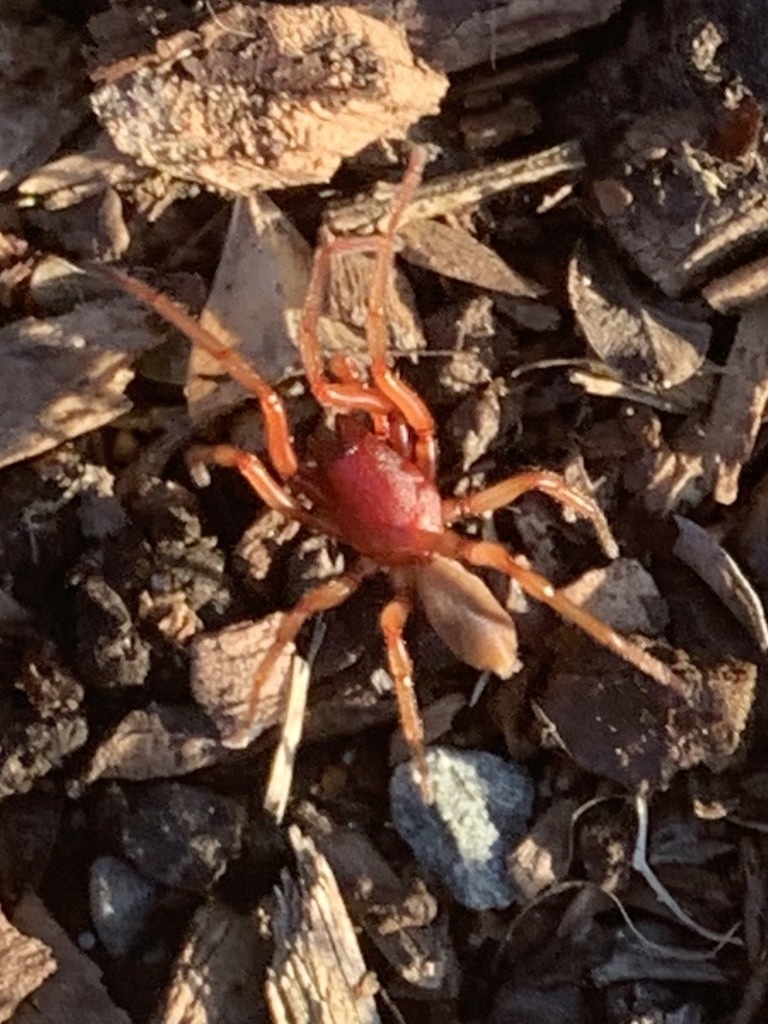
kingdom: Animalia
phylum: Arthropoda
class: Arachnida
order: Araneae
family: Dysderidae
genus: Dysdera
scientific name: Dysdera crocata
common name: Woodlouse spider
